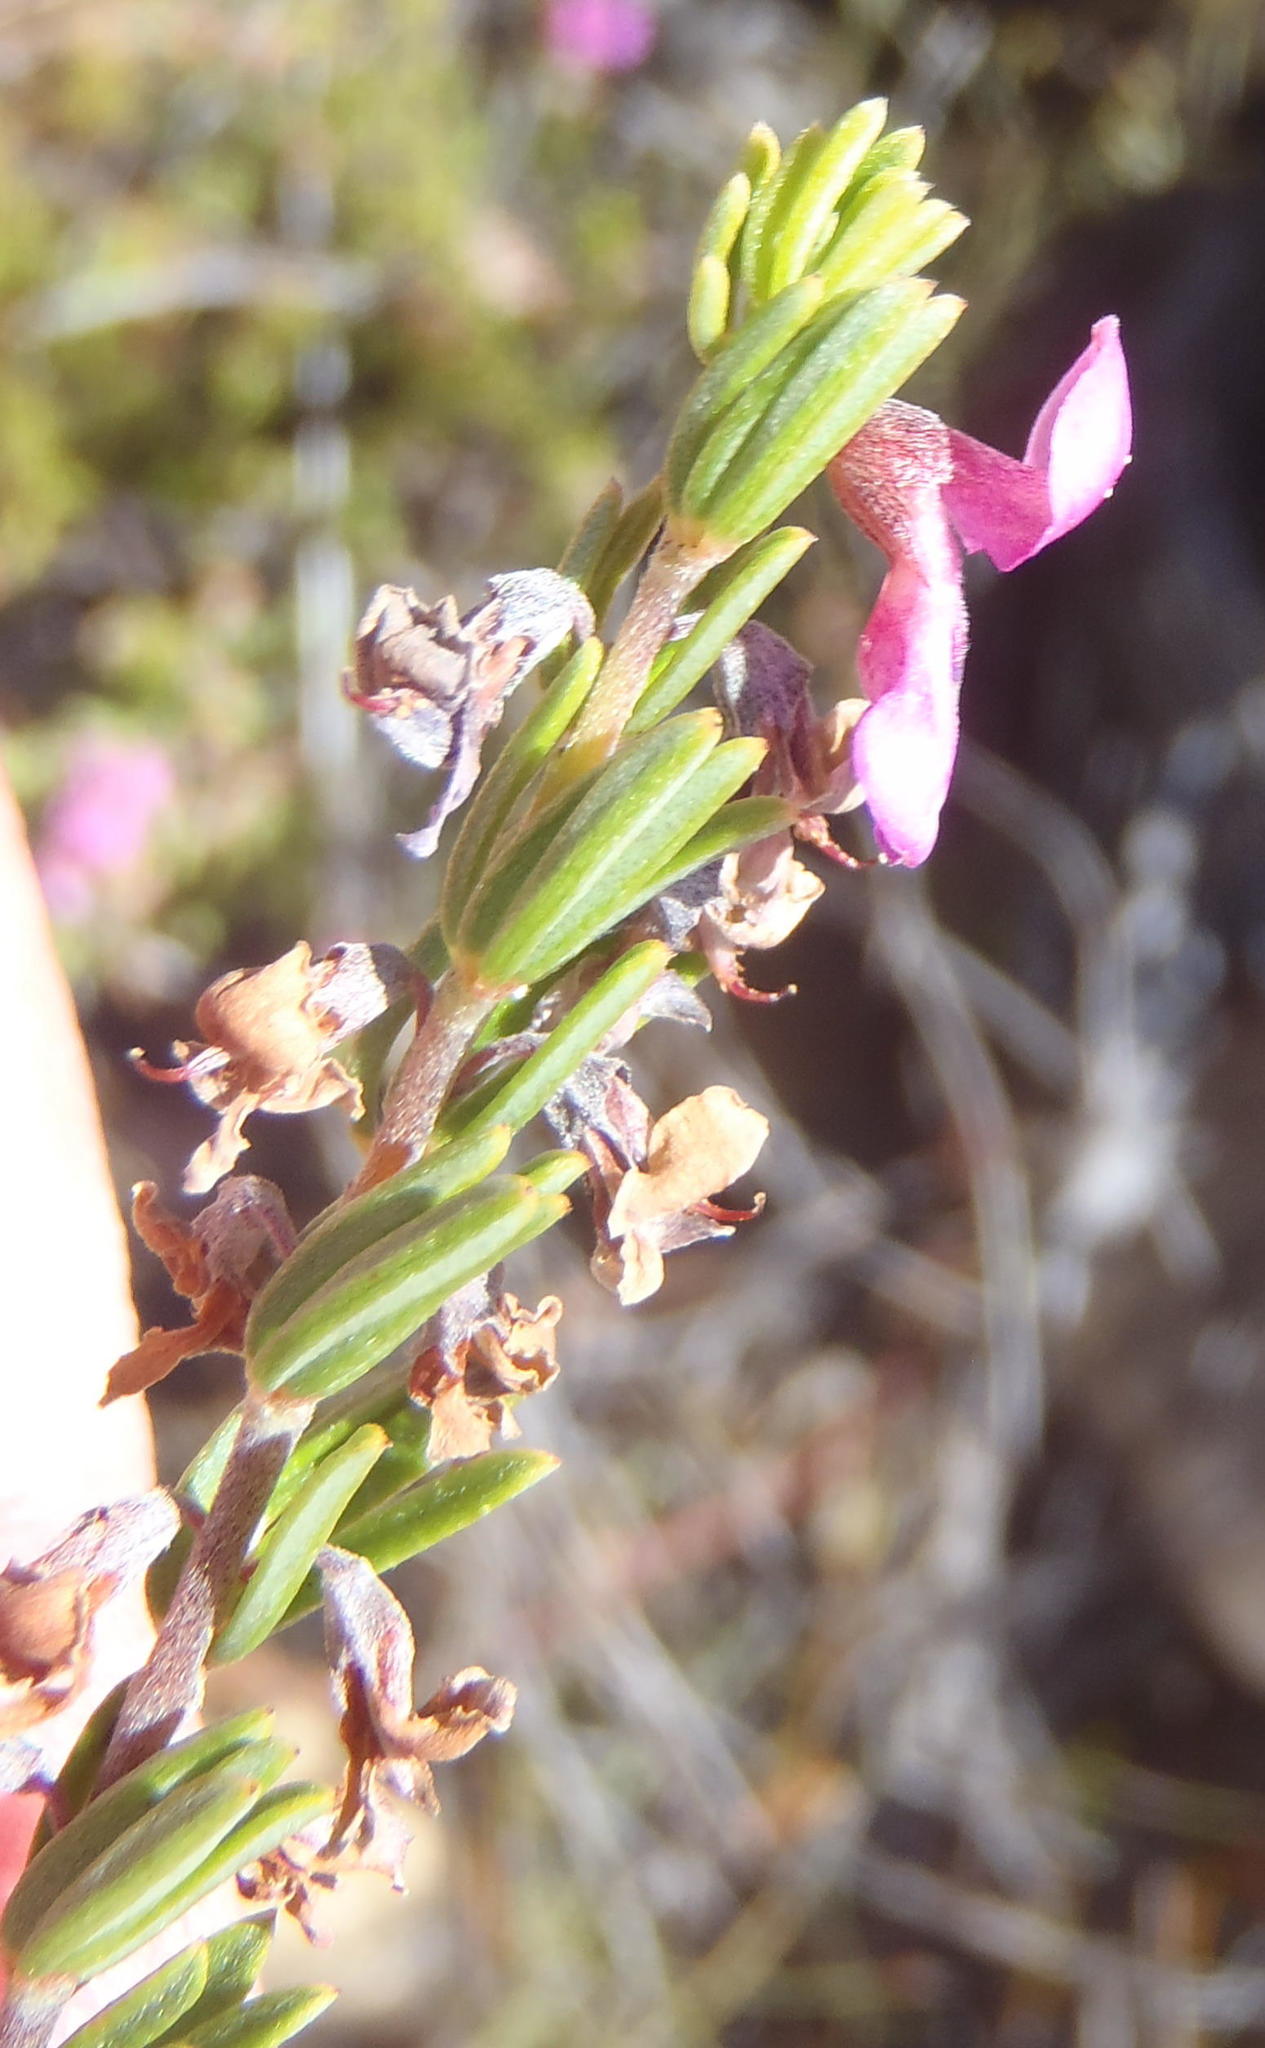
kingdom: Plantae
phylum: Tracheophyta
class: Magnoliopsida
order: Fabales
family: Fabaceae
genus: Indigofera
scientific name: Indigofera pappei
